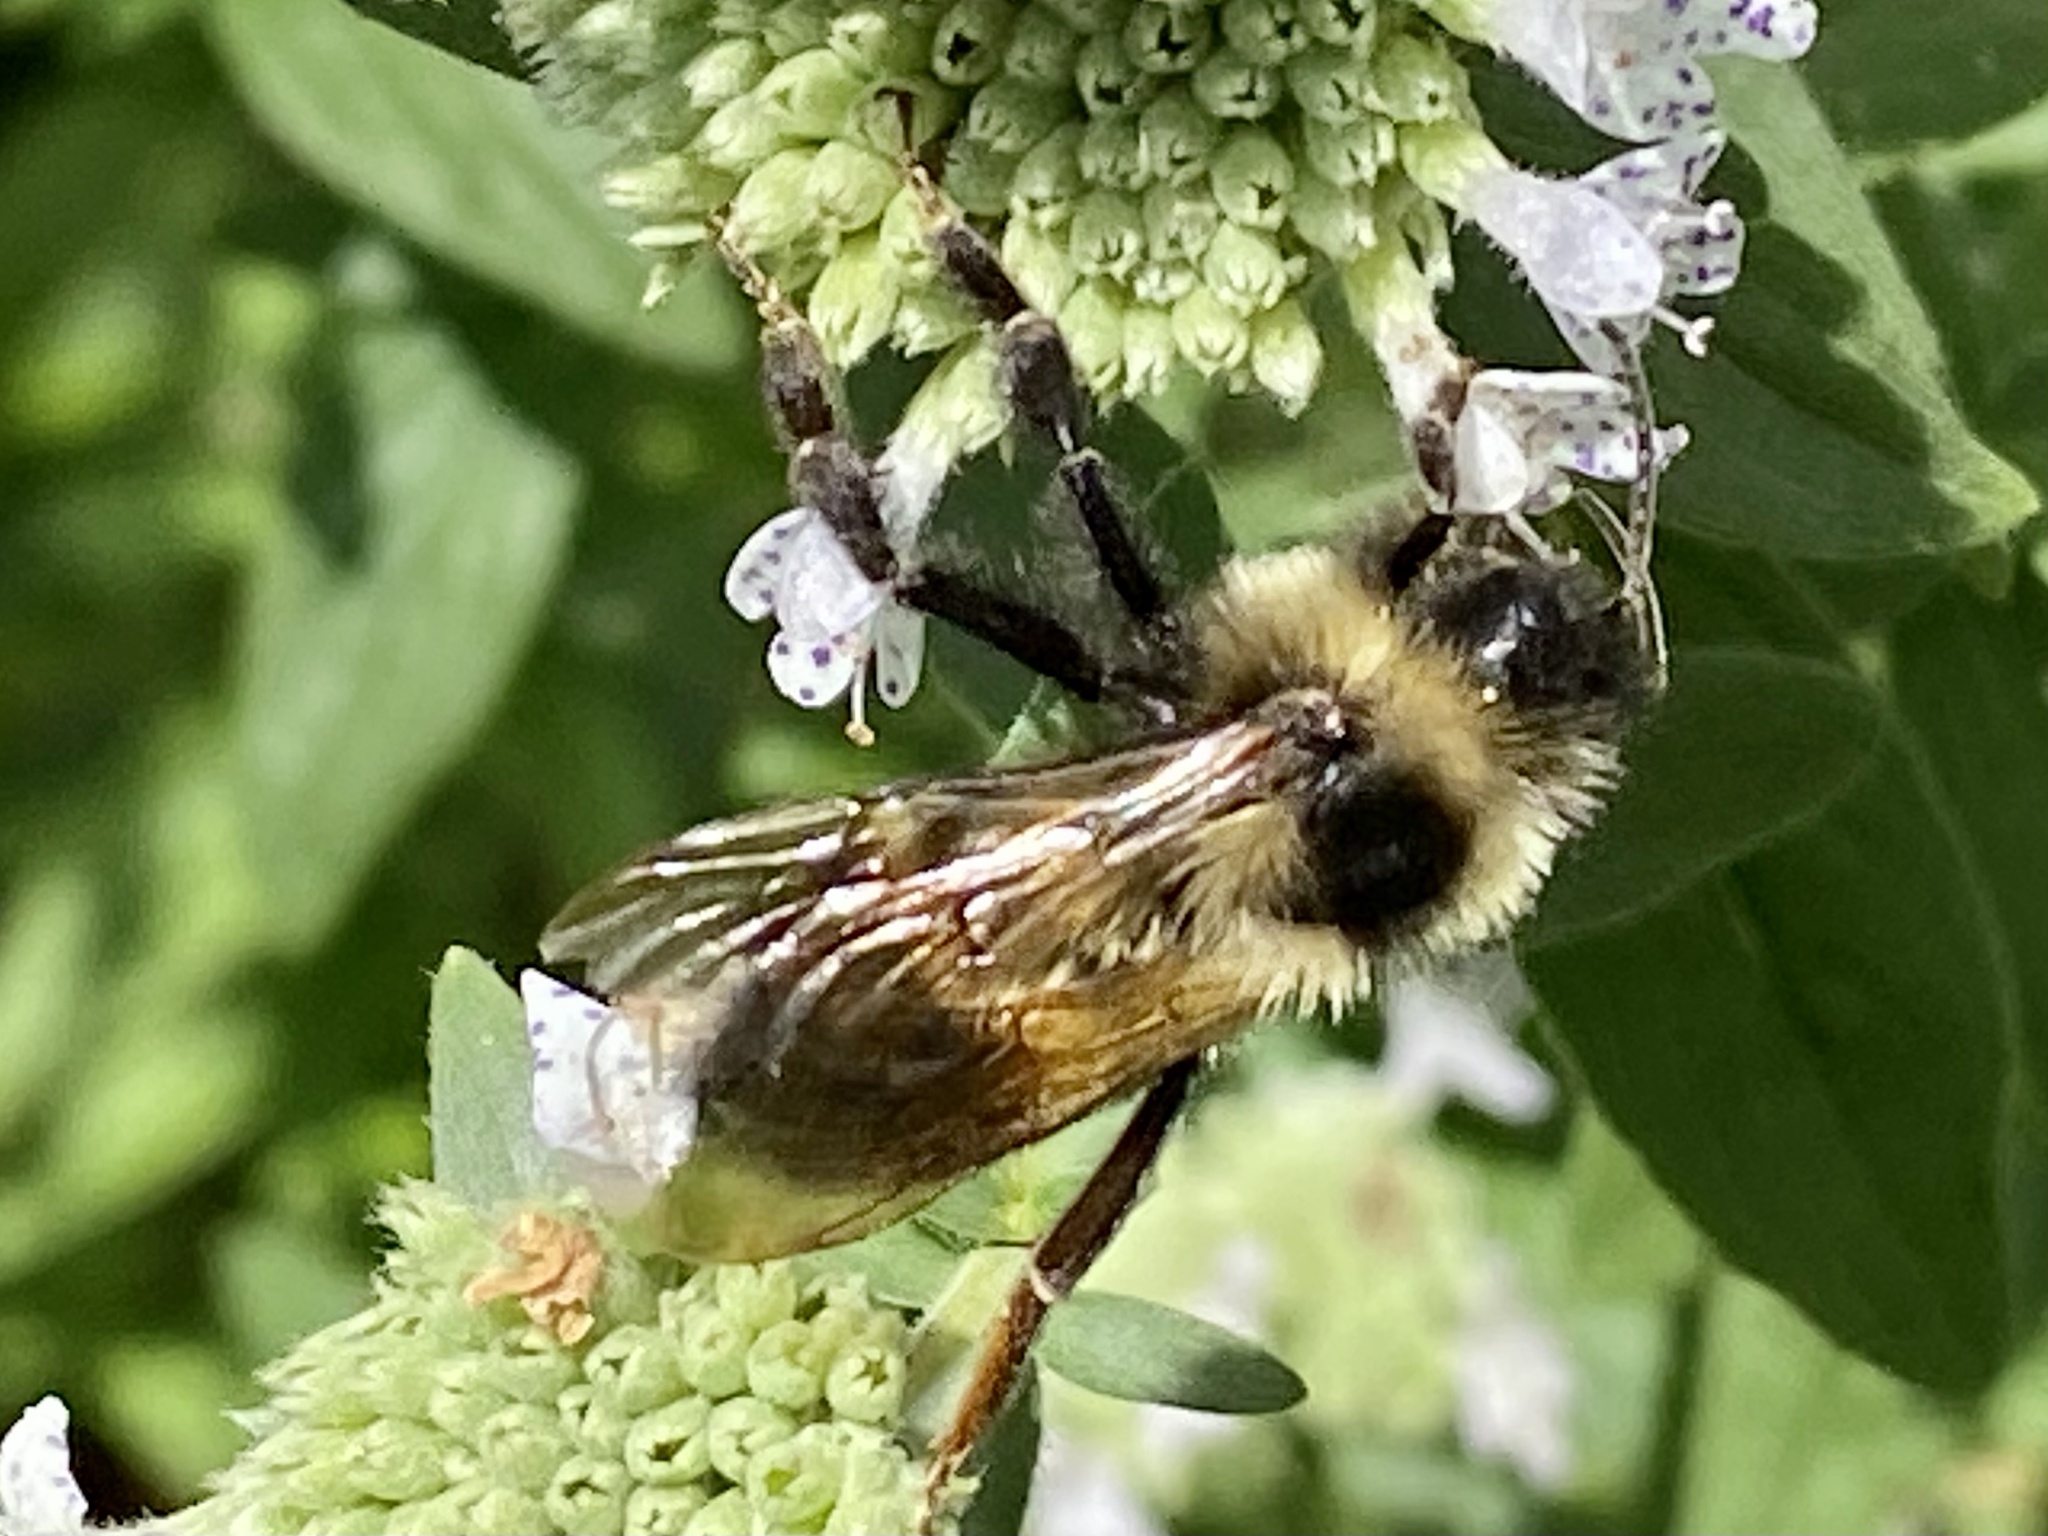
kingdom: Animalia
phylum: Arthropoda
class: Insecta
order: Hymenoptera
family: Apidae
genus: Bombus
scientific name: Bombus citrinus
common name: Lemon cuckoo bumble bee
